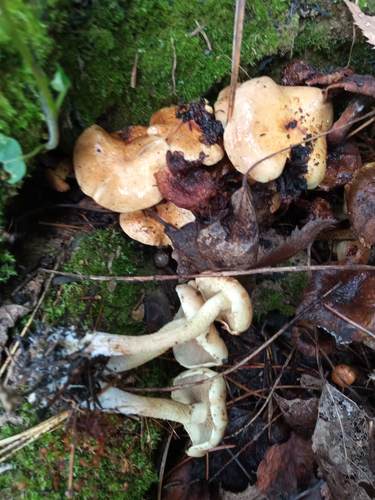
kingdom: Fungi
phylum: Basidiomycota
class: Agaricomycetes
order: Agaricales
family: Strophariaceae
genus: Hypholoma
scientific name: Hypholoma
